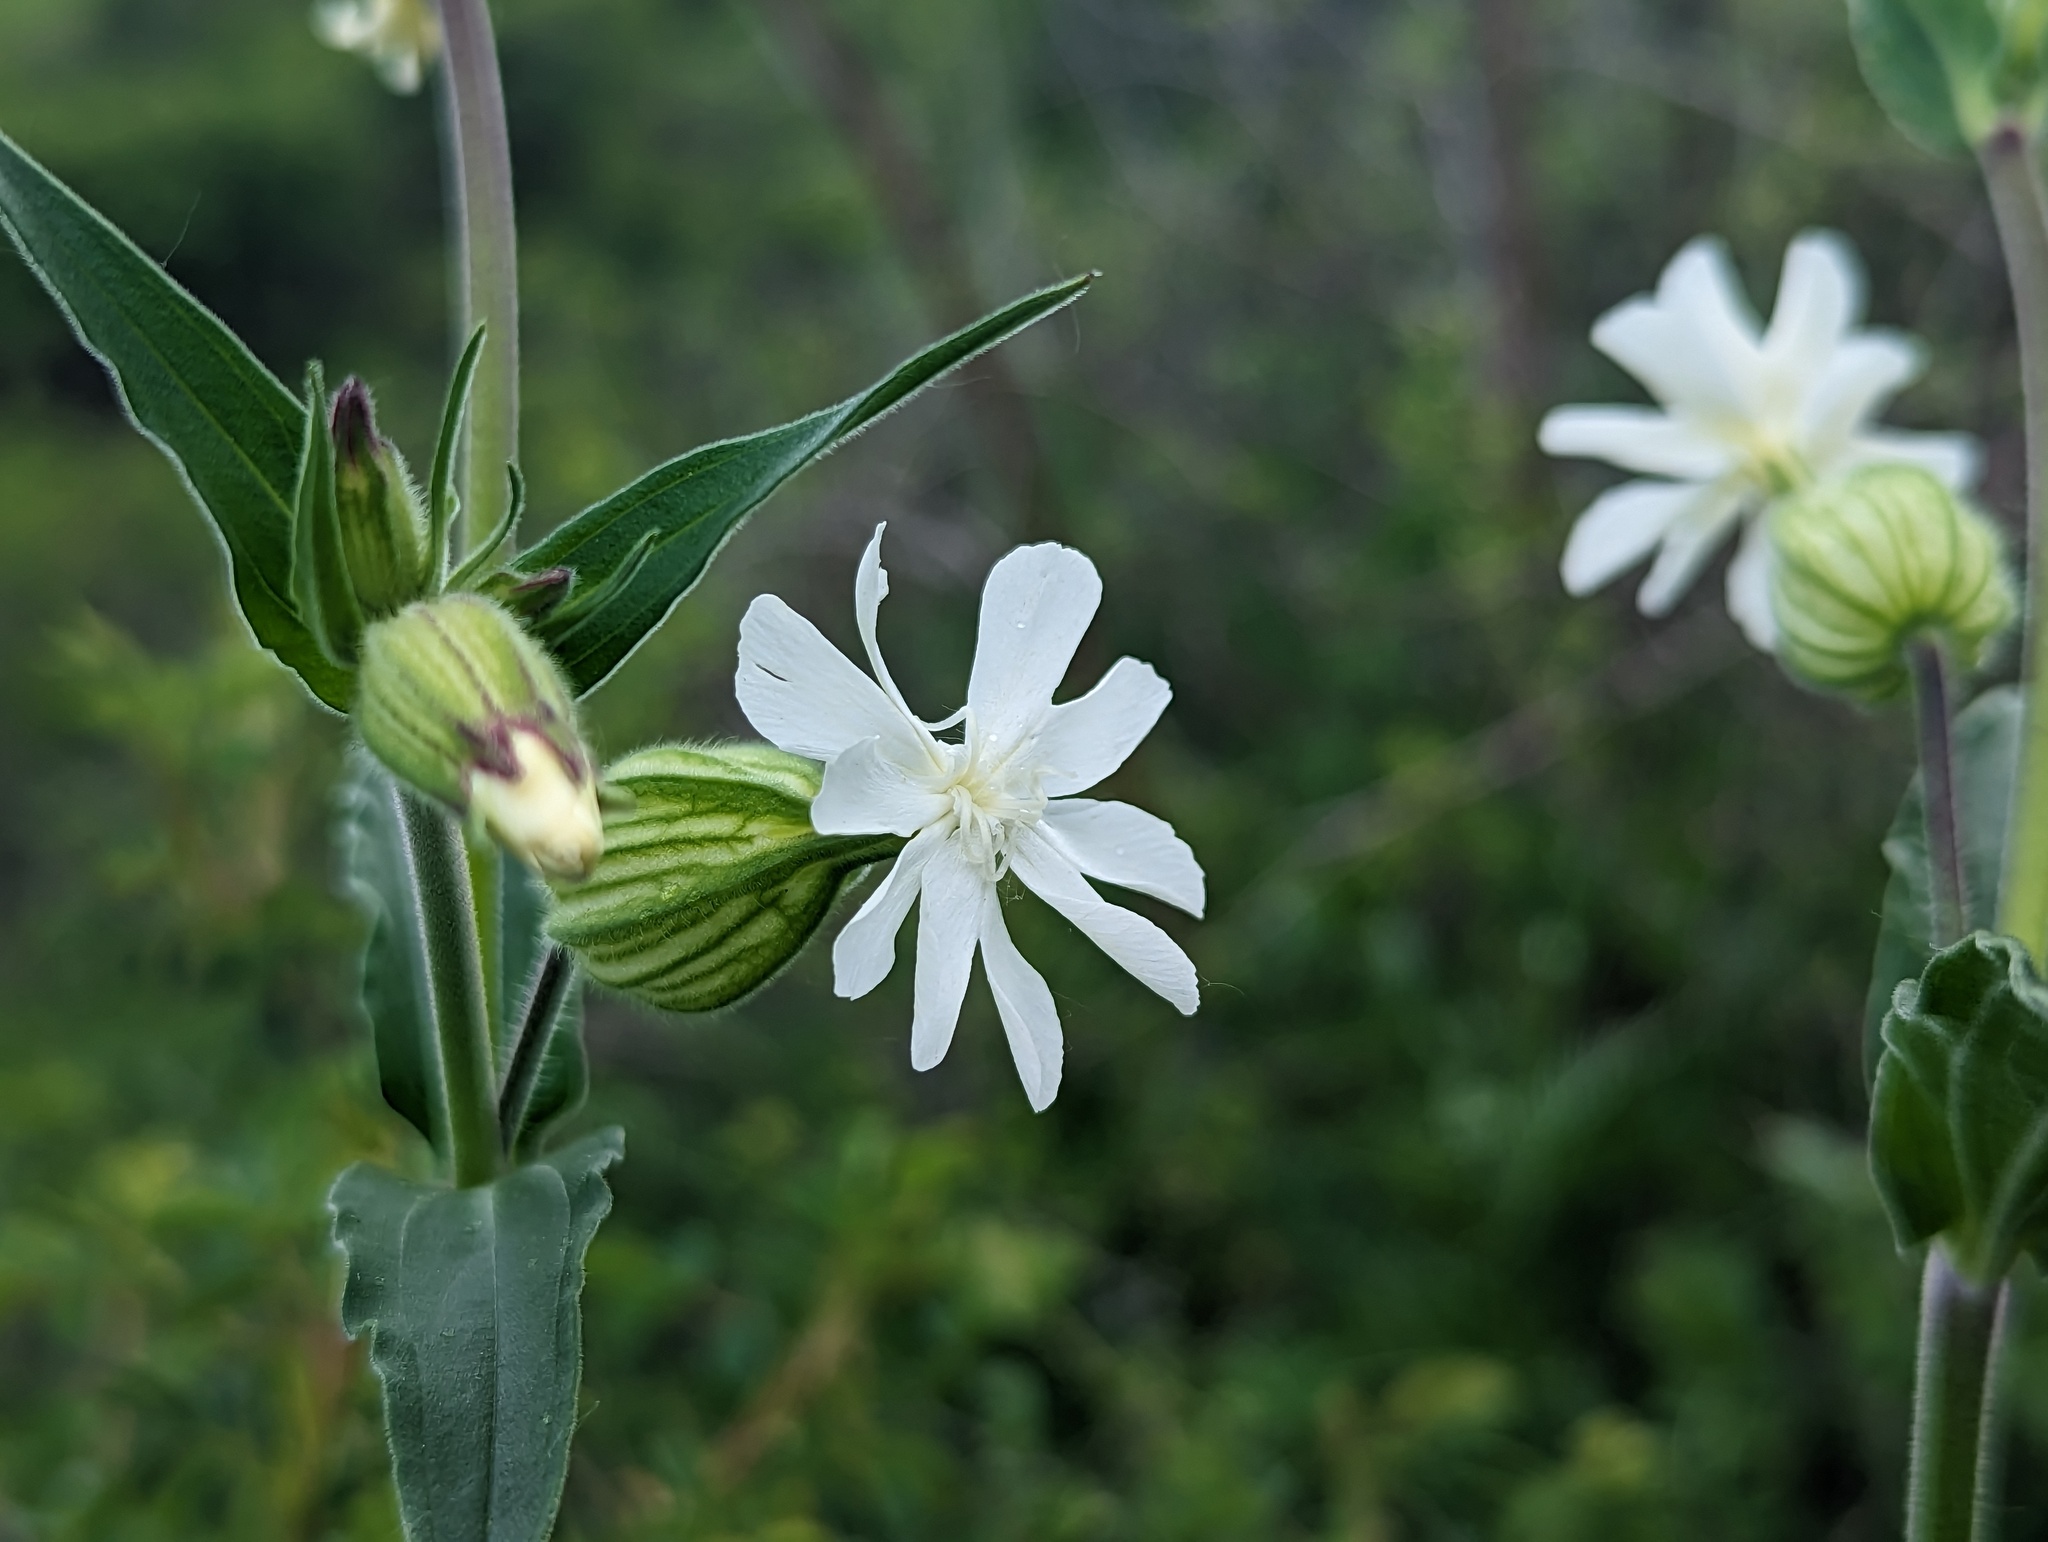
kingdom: Plantae
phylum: Tracheophyta
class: Magnoliopsida
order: Caryophyllales
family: Caryophyllaceae
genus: Silene
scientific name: Silene latifolia
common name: White campion
